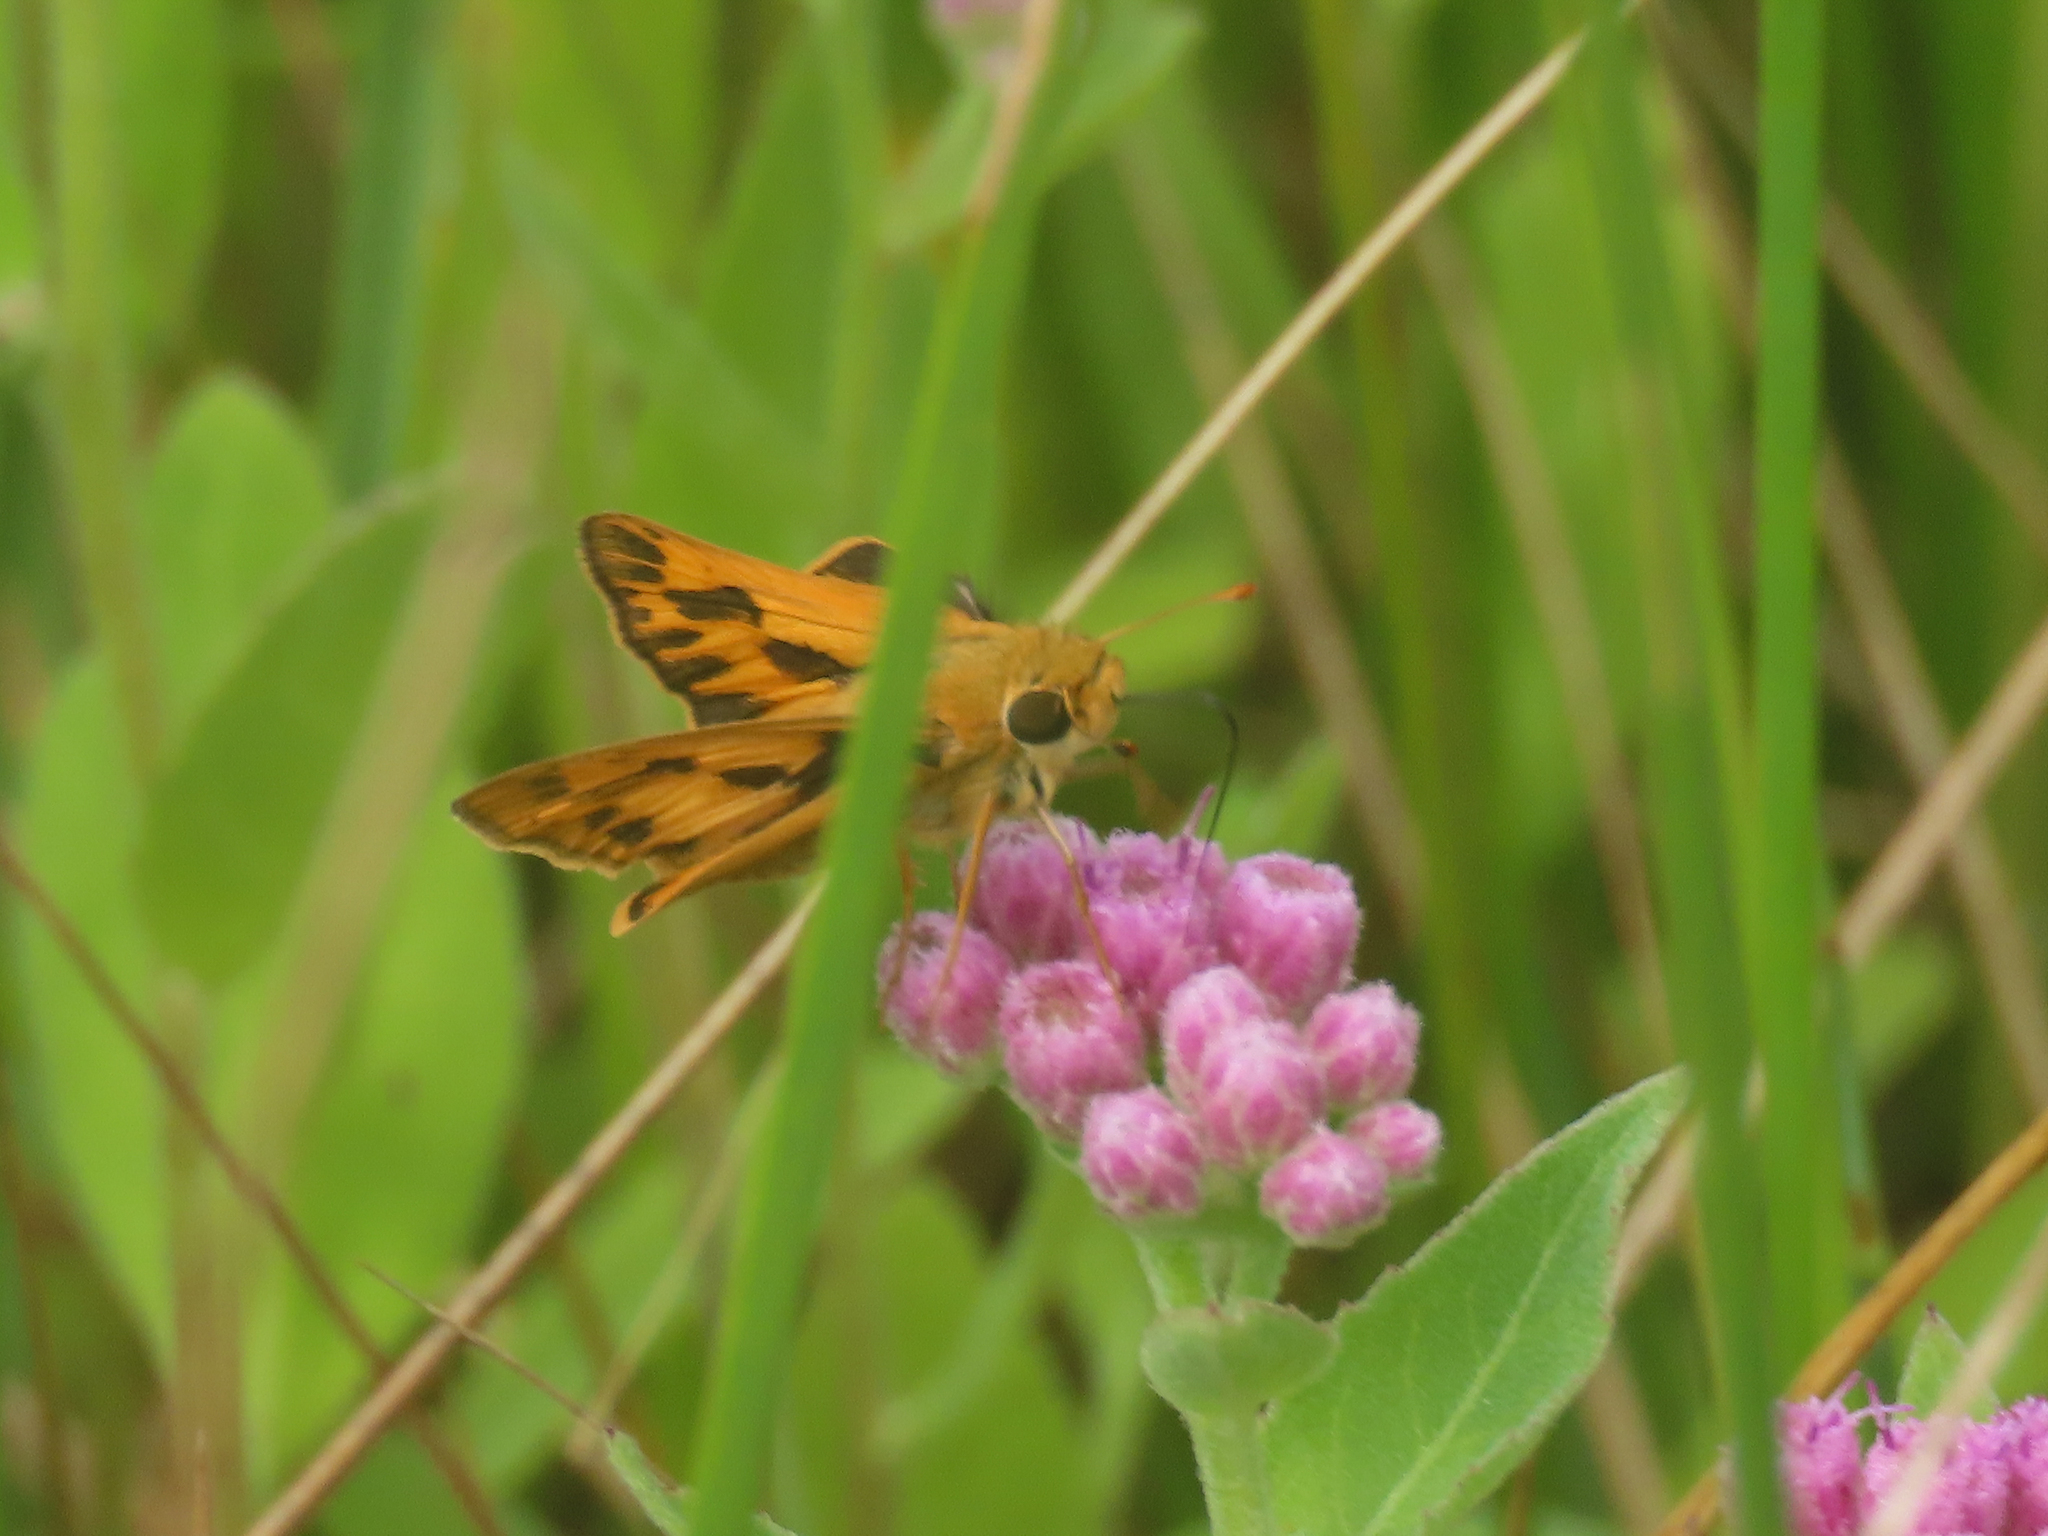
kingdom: Animalia
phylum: Arthropoda
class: Insecta
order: Lepidoptera
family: Hesperiidae
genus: Hylephila
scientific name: Hylephila phyleus
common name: Fiery skipper
